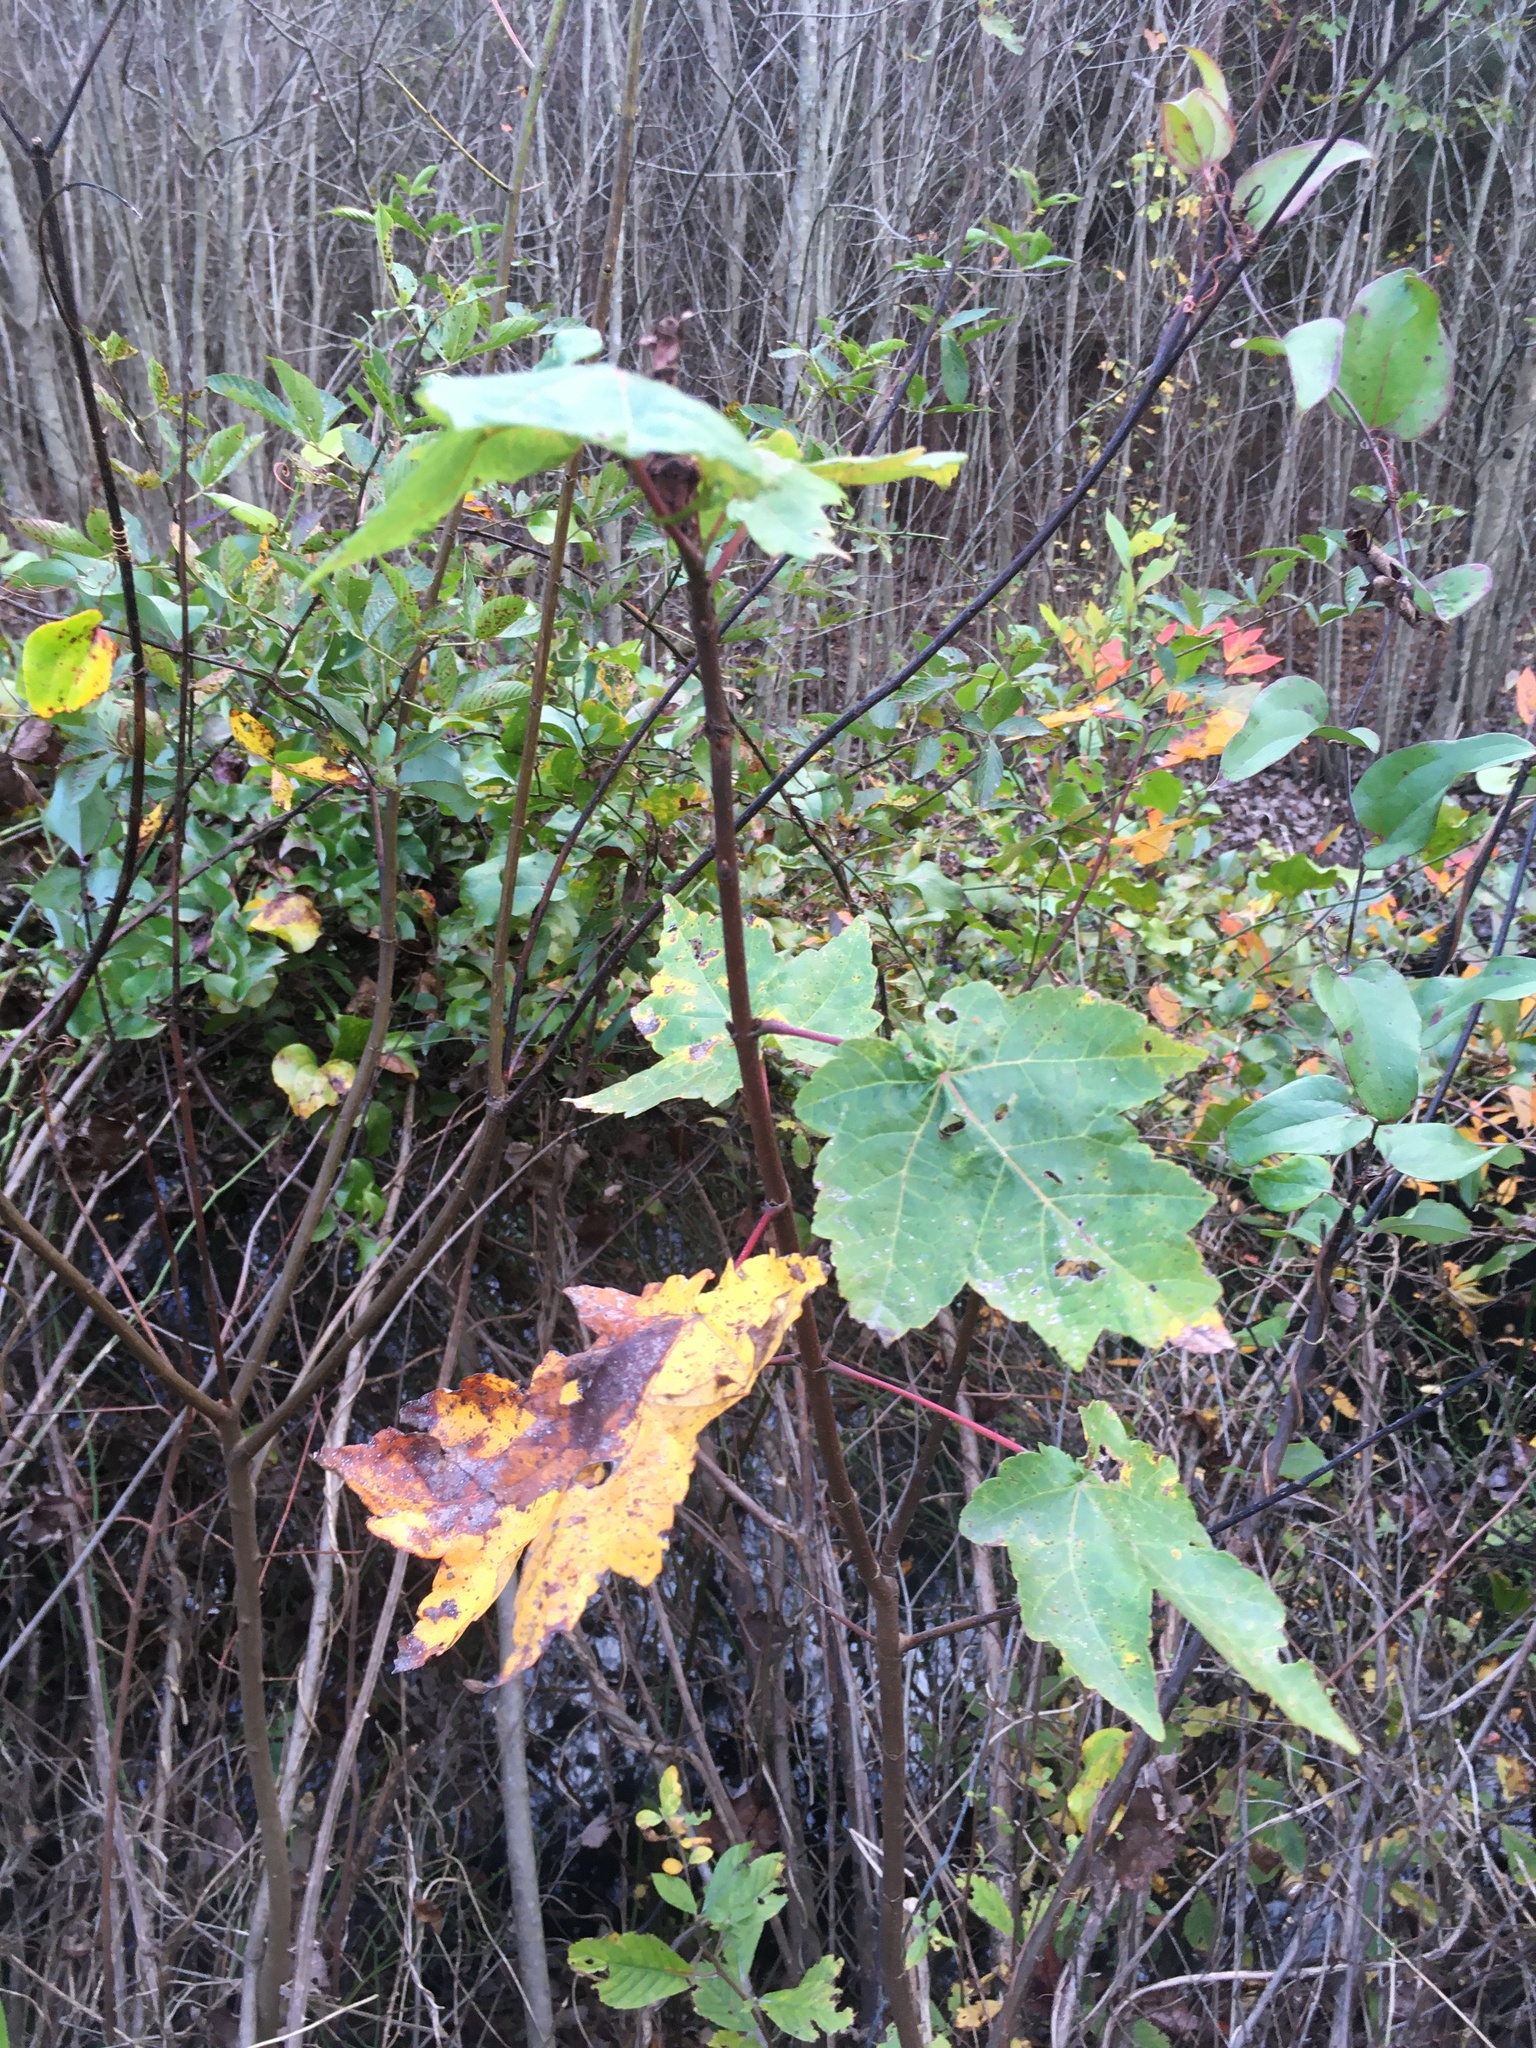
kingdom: Plantae
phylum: Tracheophyta
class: Magnoliopsida
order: Sapindales
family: Sapindaceae
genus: Acer
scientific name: Acer rubrum
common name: Red maple
